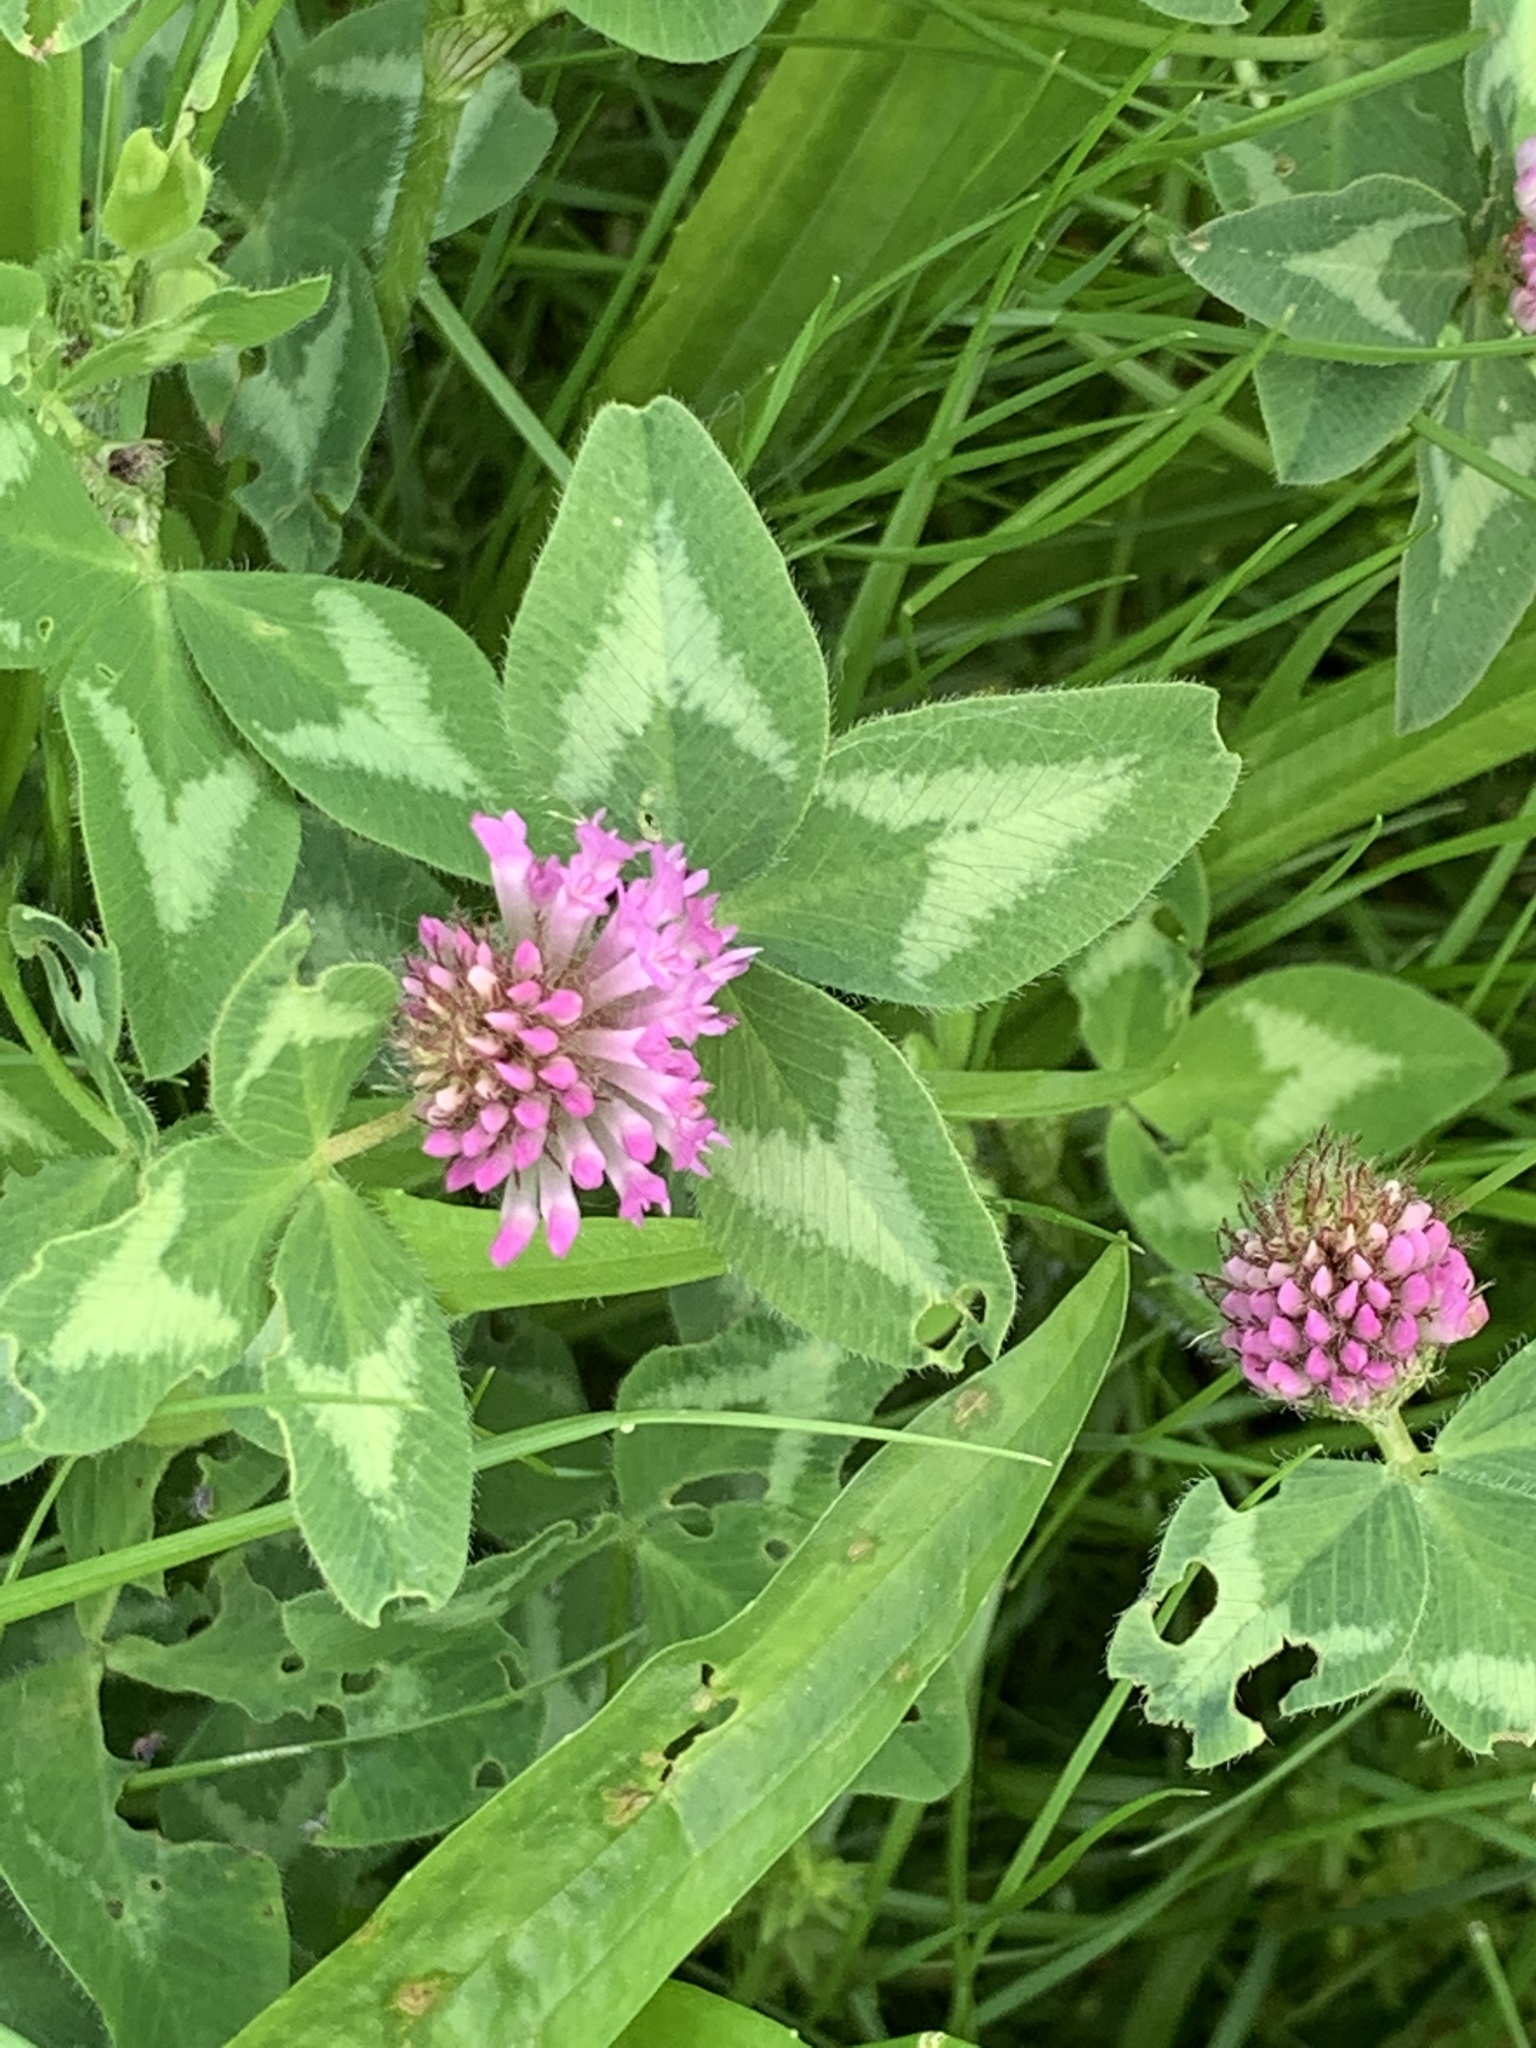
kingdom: Plantae
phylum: Tracheophyta
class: Magnoliopsida
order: Fabales
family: Fabaceae
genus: Trifolium
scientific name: Trifolium pratense
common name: Red clover
